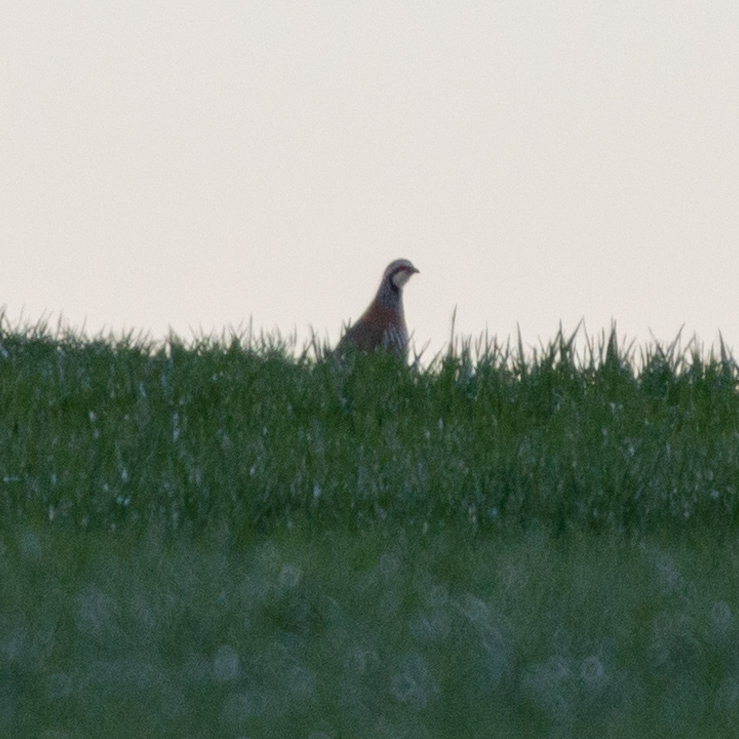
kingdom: Animalia
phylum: Chordata
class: Aves
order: Galliformes
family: Phasianidae
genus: Alectoris
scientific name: Alectoris rufa
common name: Red-legged partridge
